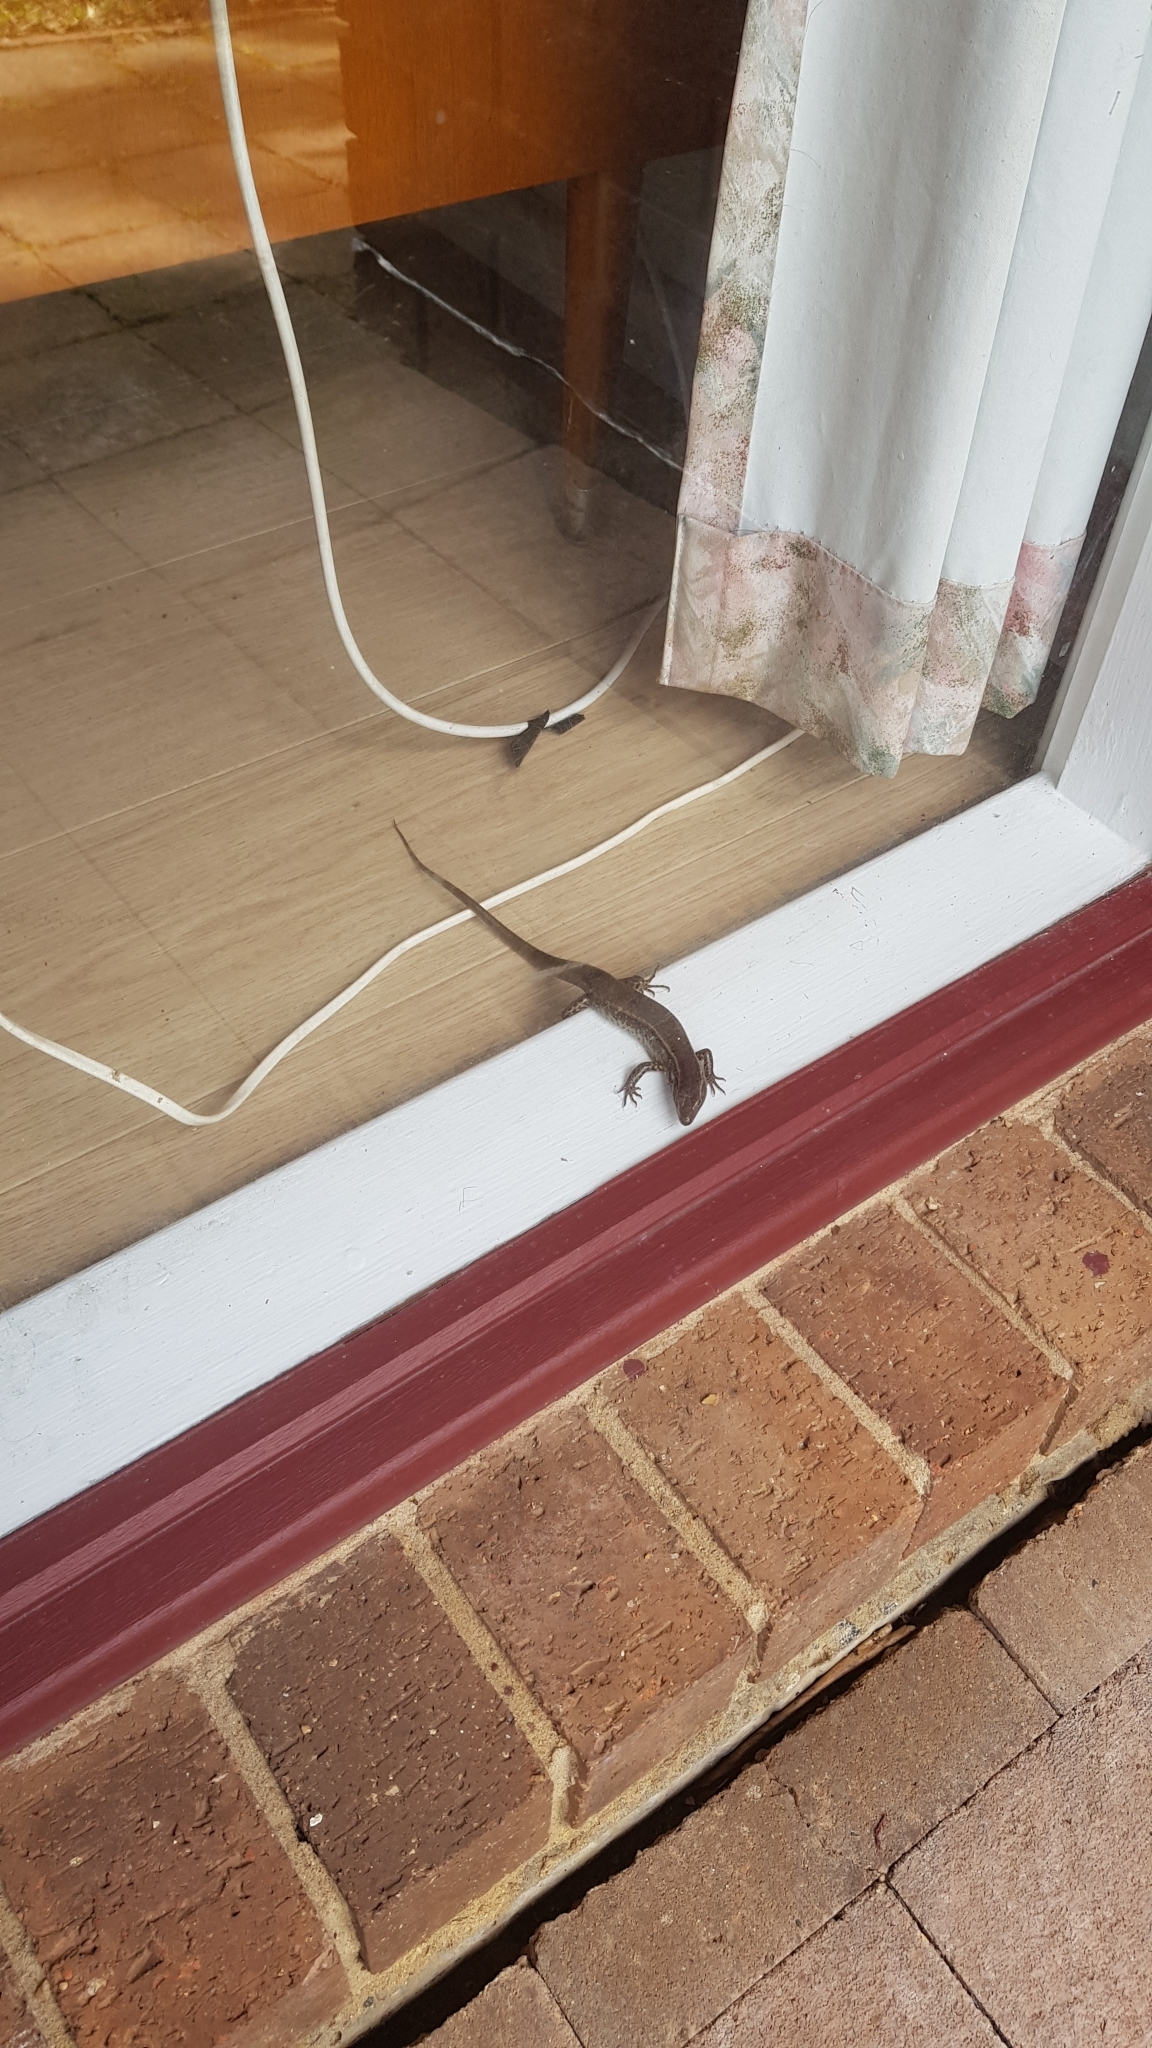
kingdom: Animalia
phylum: Chordata
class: Squamata
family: Scincidae
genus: Eulamprus
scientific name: Eulamprus quoyii
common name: Eastern water skink
